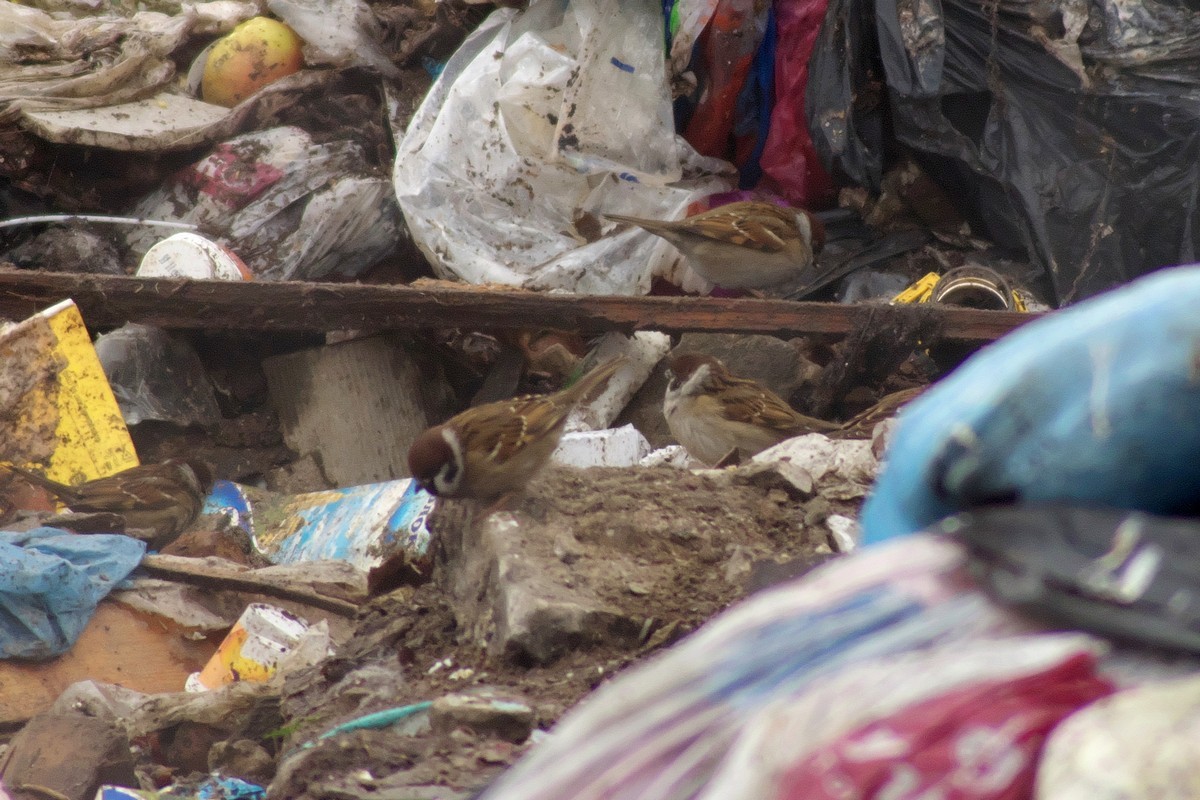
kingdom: Animalia
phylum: Chordata
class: Aves
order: Passeriformes
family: Passeridae
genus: Passer
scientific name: Passer montanus
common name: Eurasian tree sparrow
